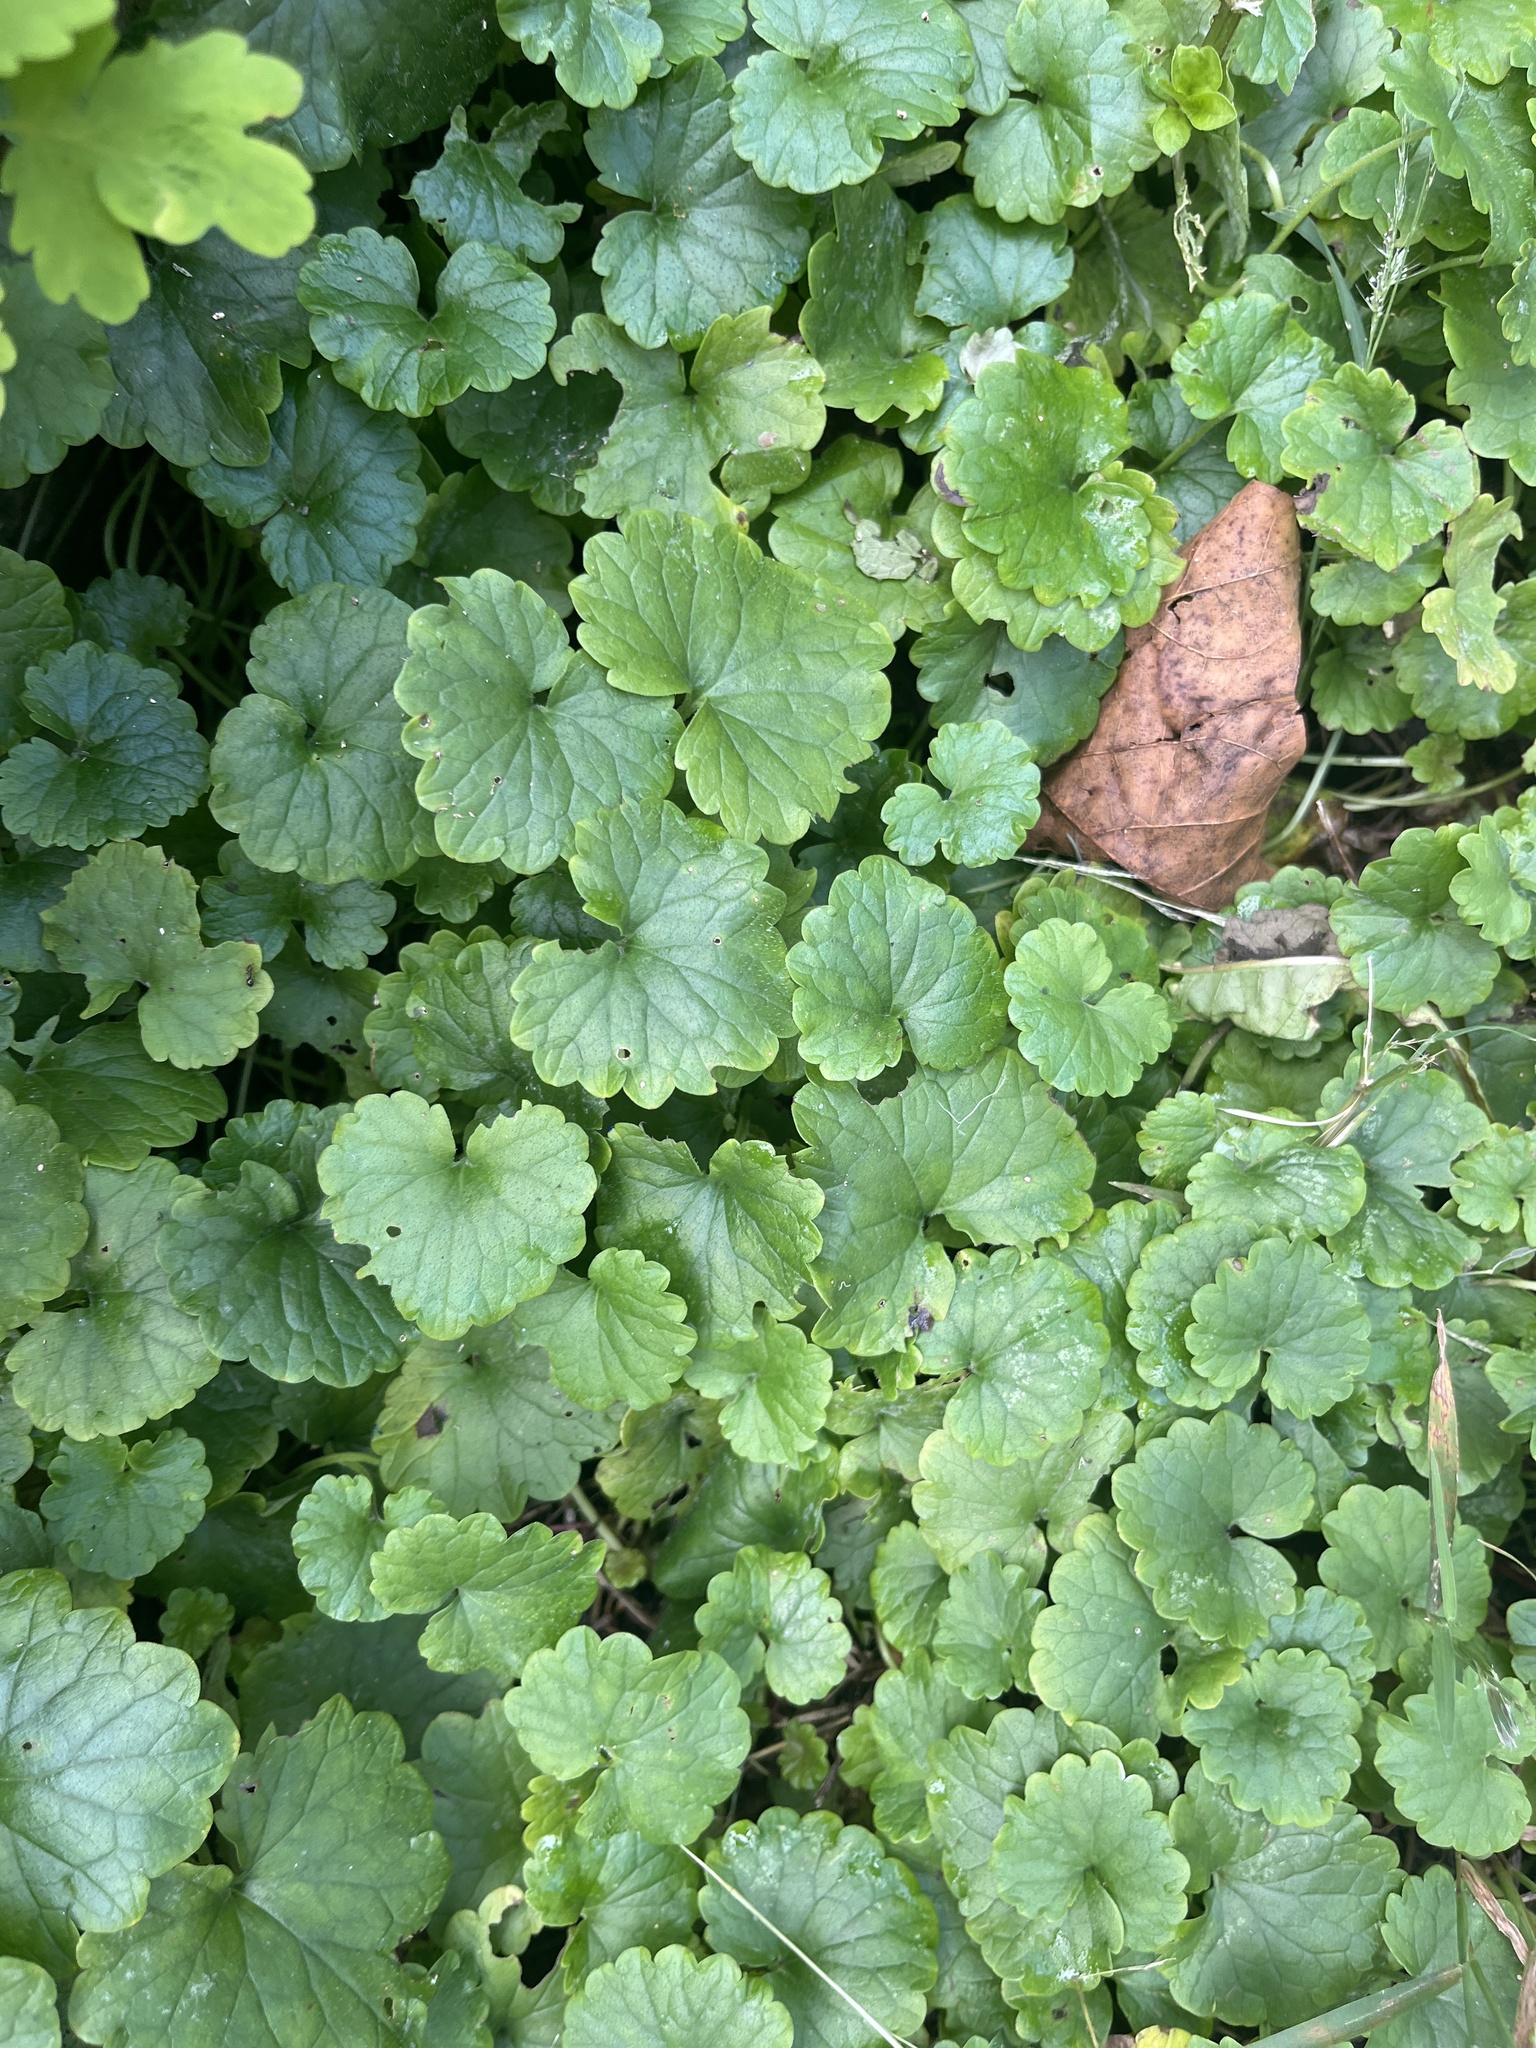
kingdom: Plantae
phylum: Tracheophyta
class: Magnoliopsida
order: Lamiales
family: Lamiaceae
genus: Glechoma
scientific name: Glechoma hederacea
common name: Ground ivy
